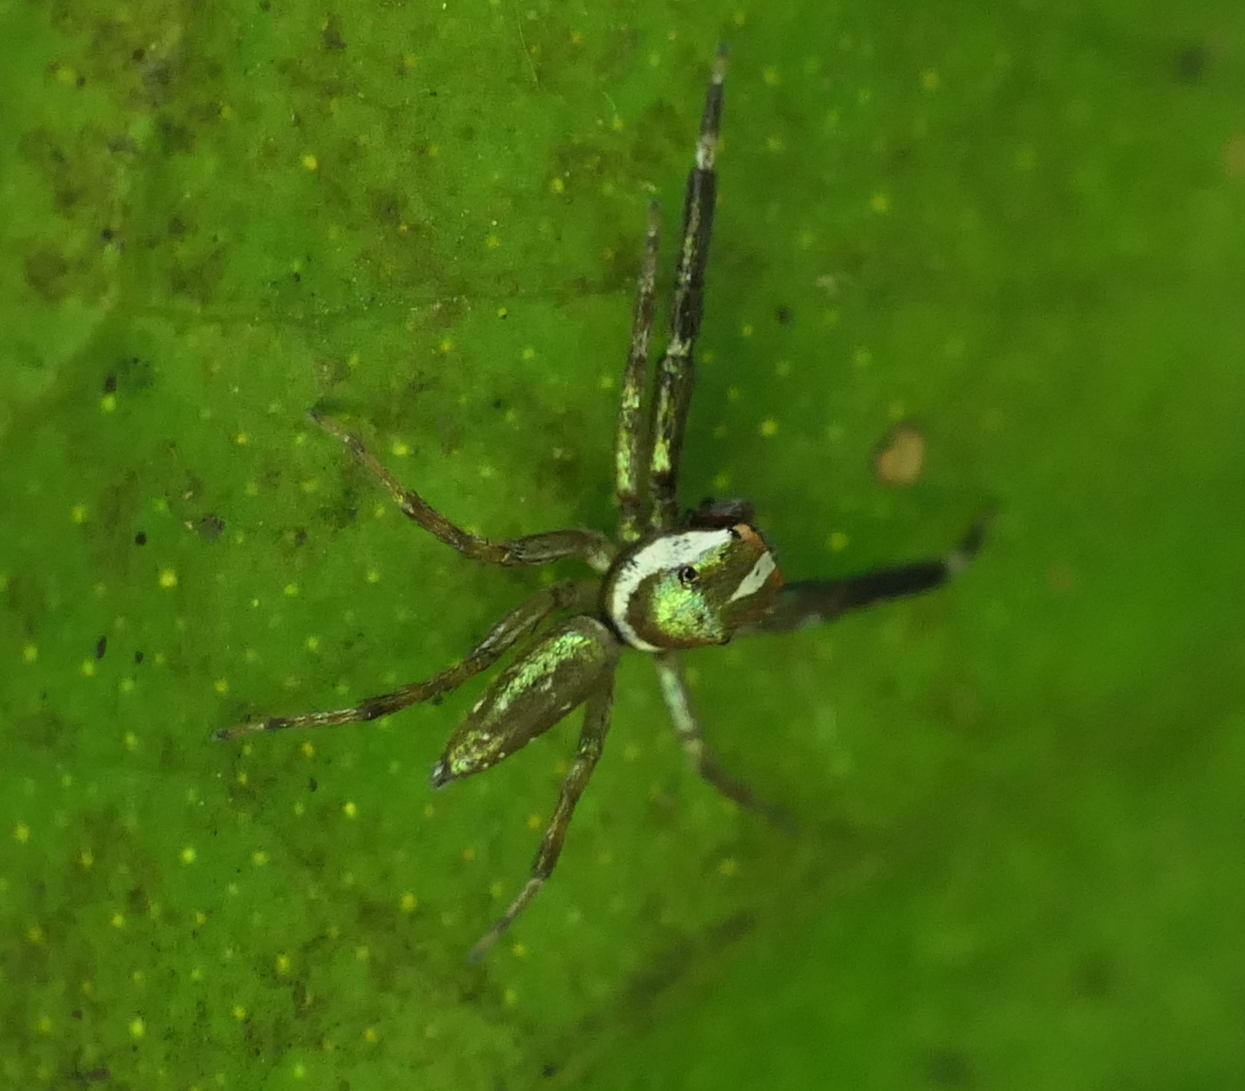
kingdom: Animalia
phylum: Arthropoda
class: Arachnida
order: Araneae
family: Salticidae
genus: Philira
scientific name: Philira micans
